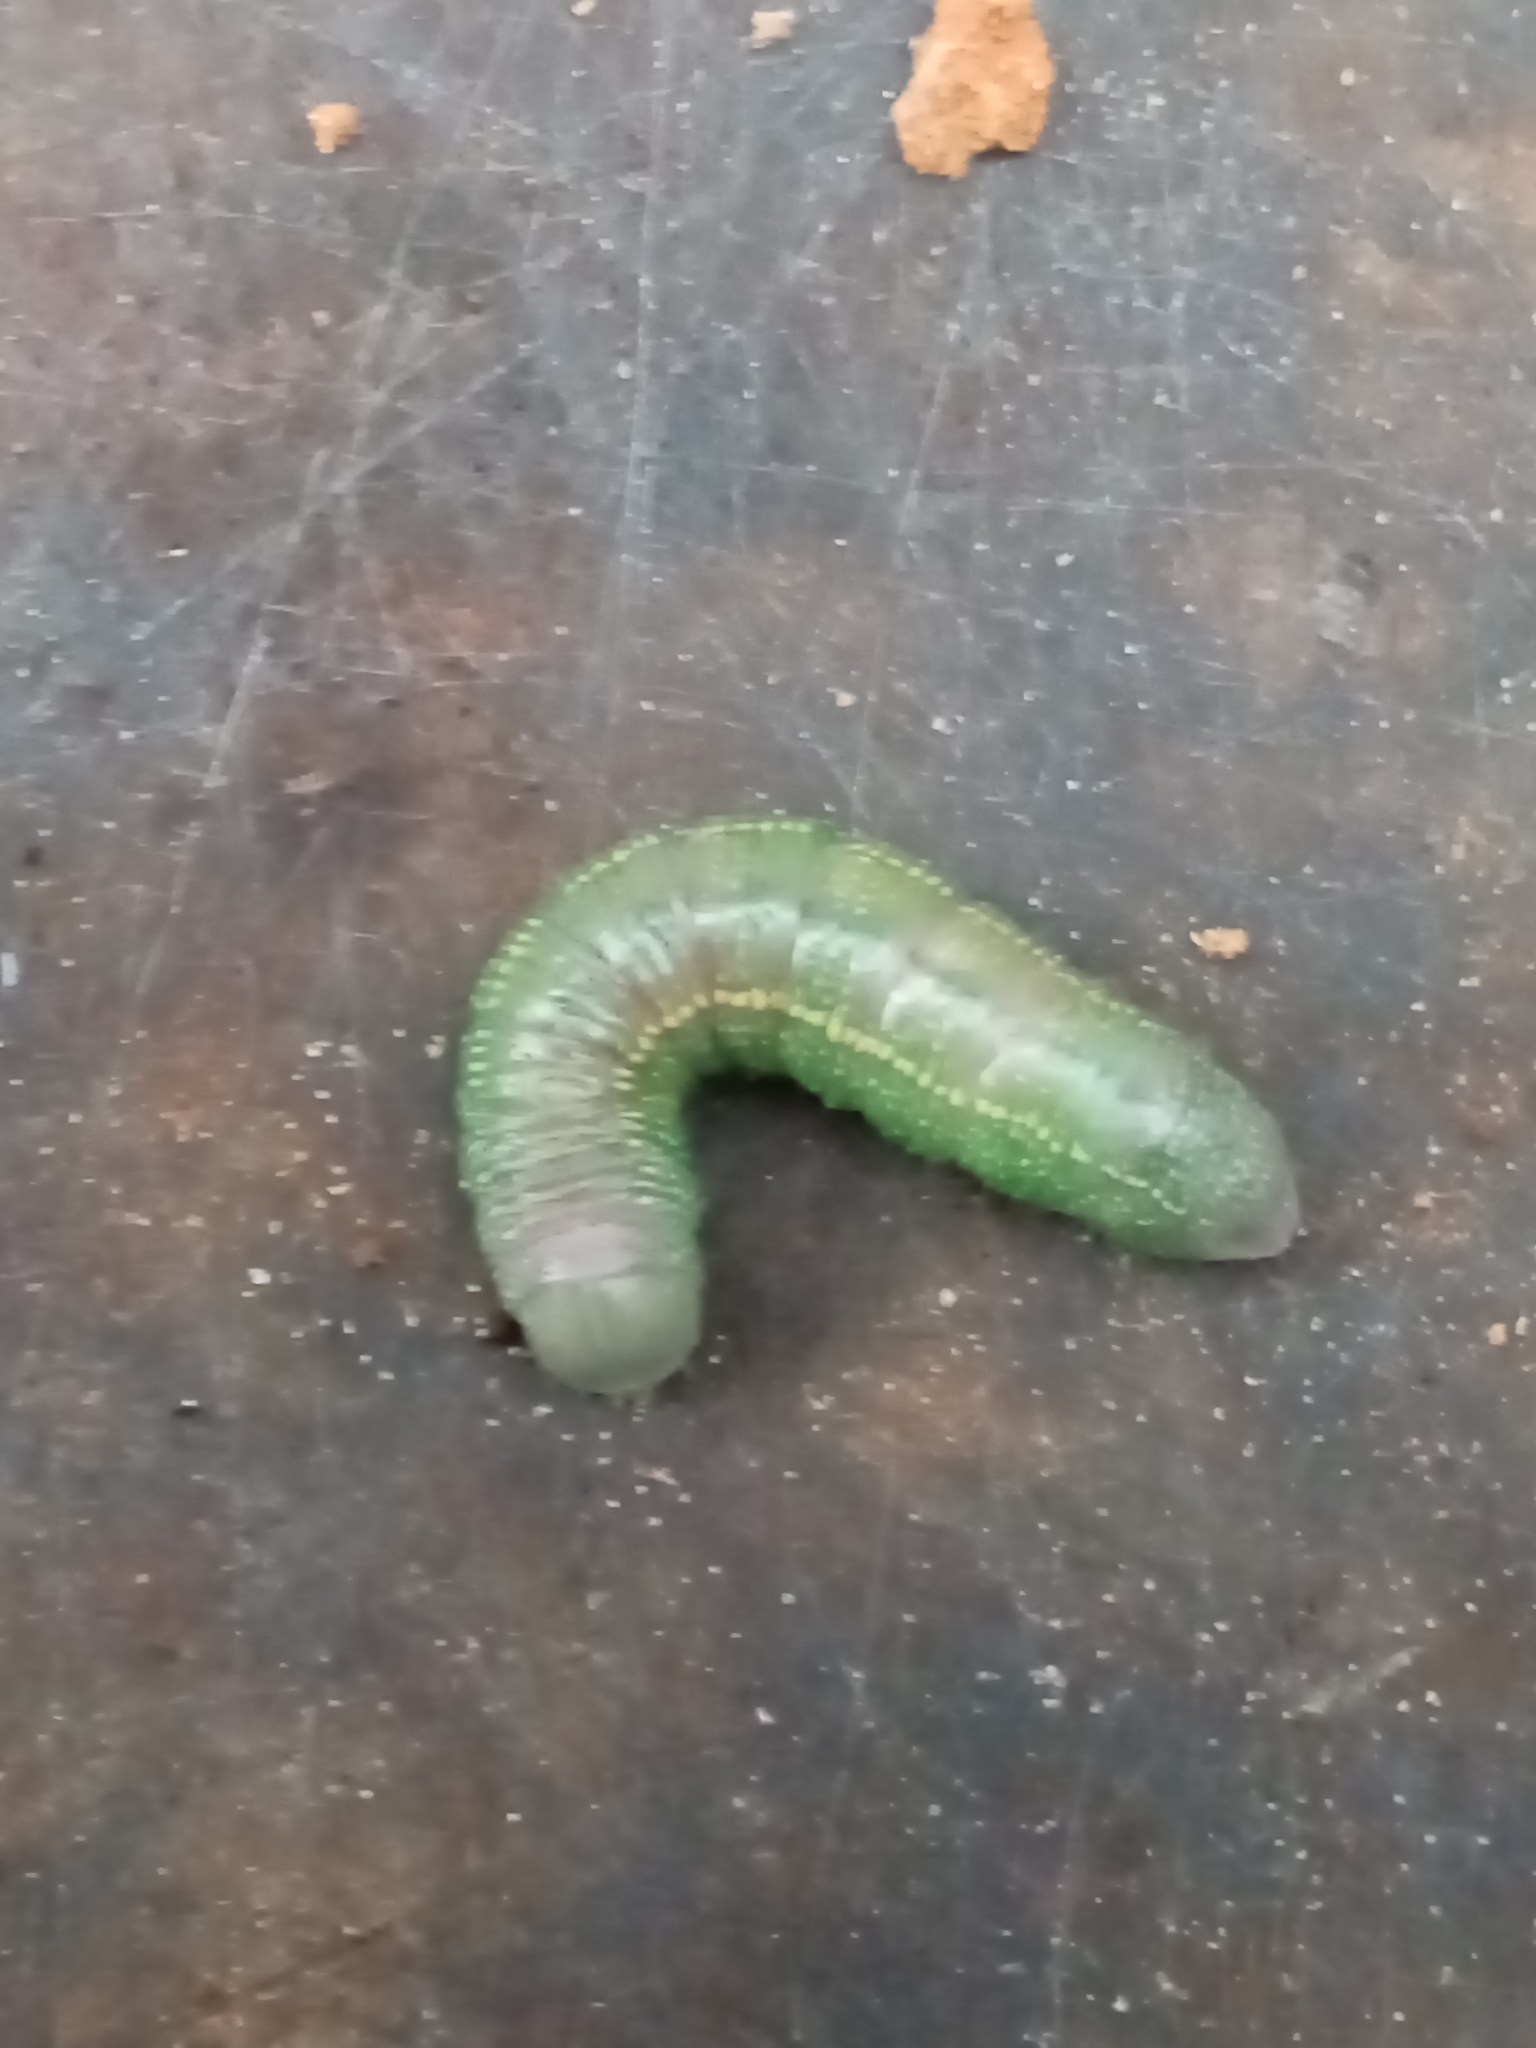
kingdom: Animalia
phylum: Arthropoda
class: Insecta
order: Lepidoptera
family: Notodontidae
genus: Nadata
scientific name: Nadata gibbosa
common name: White-dotted prominent
